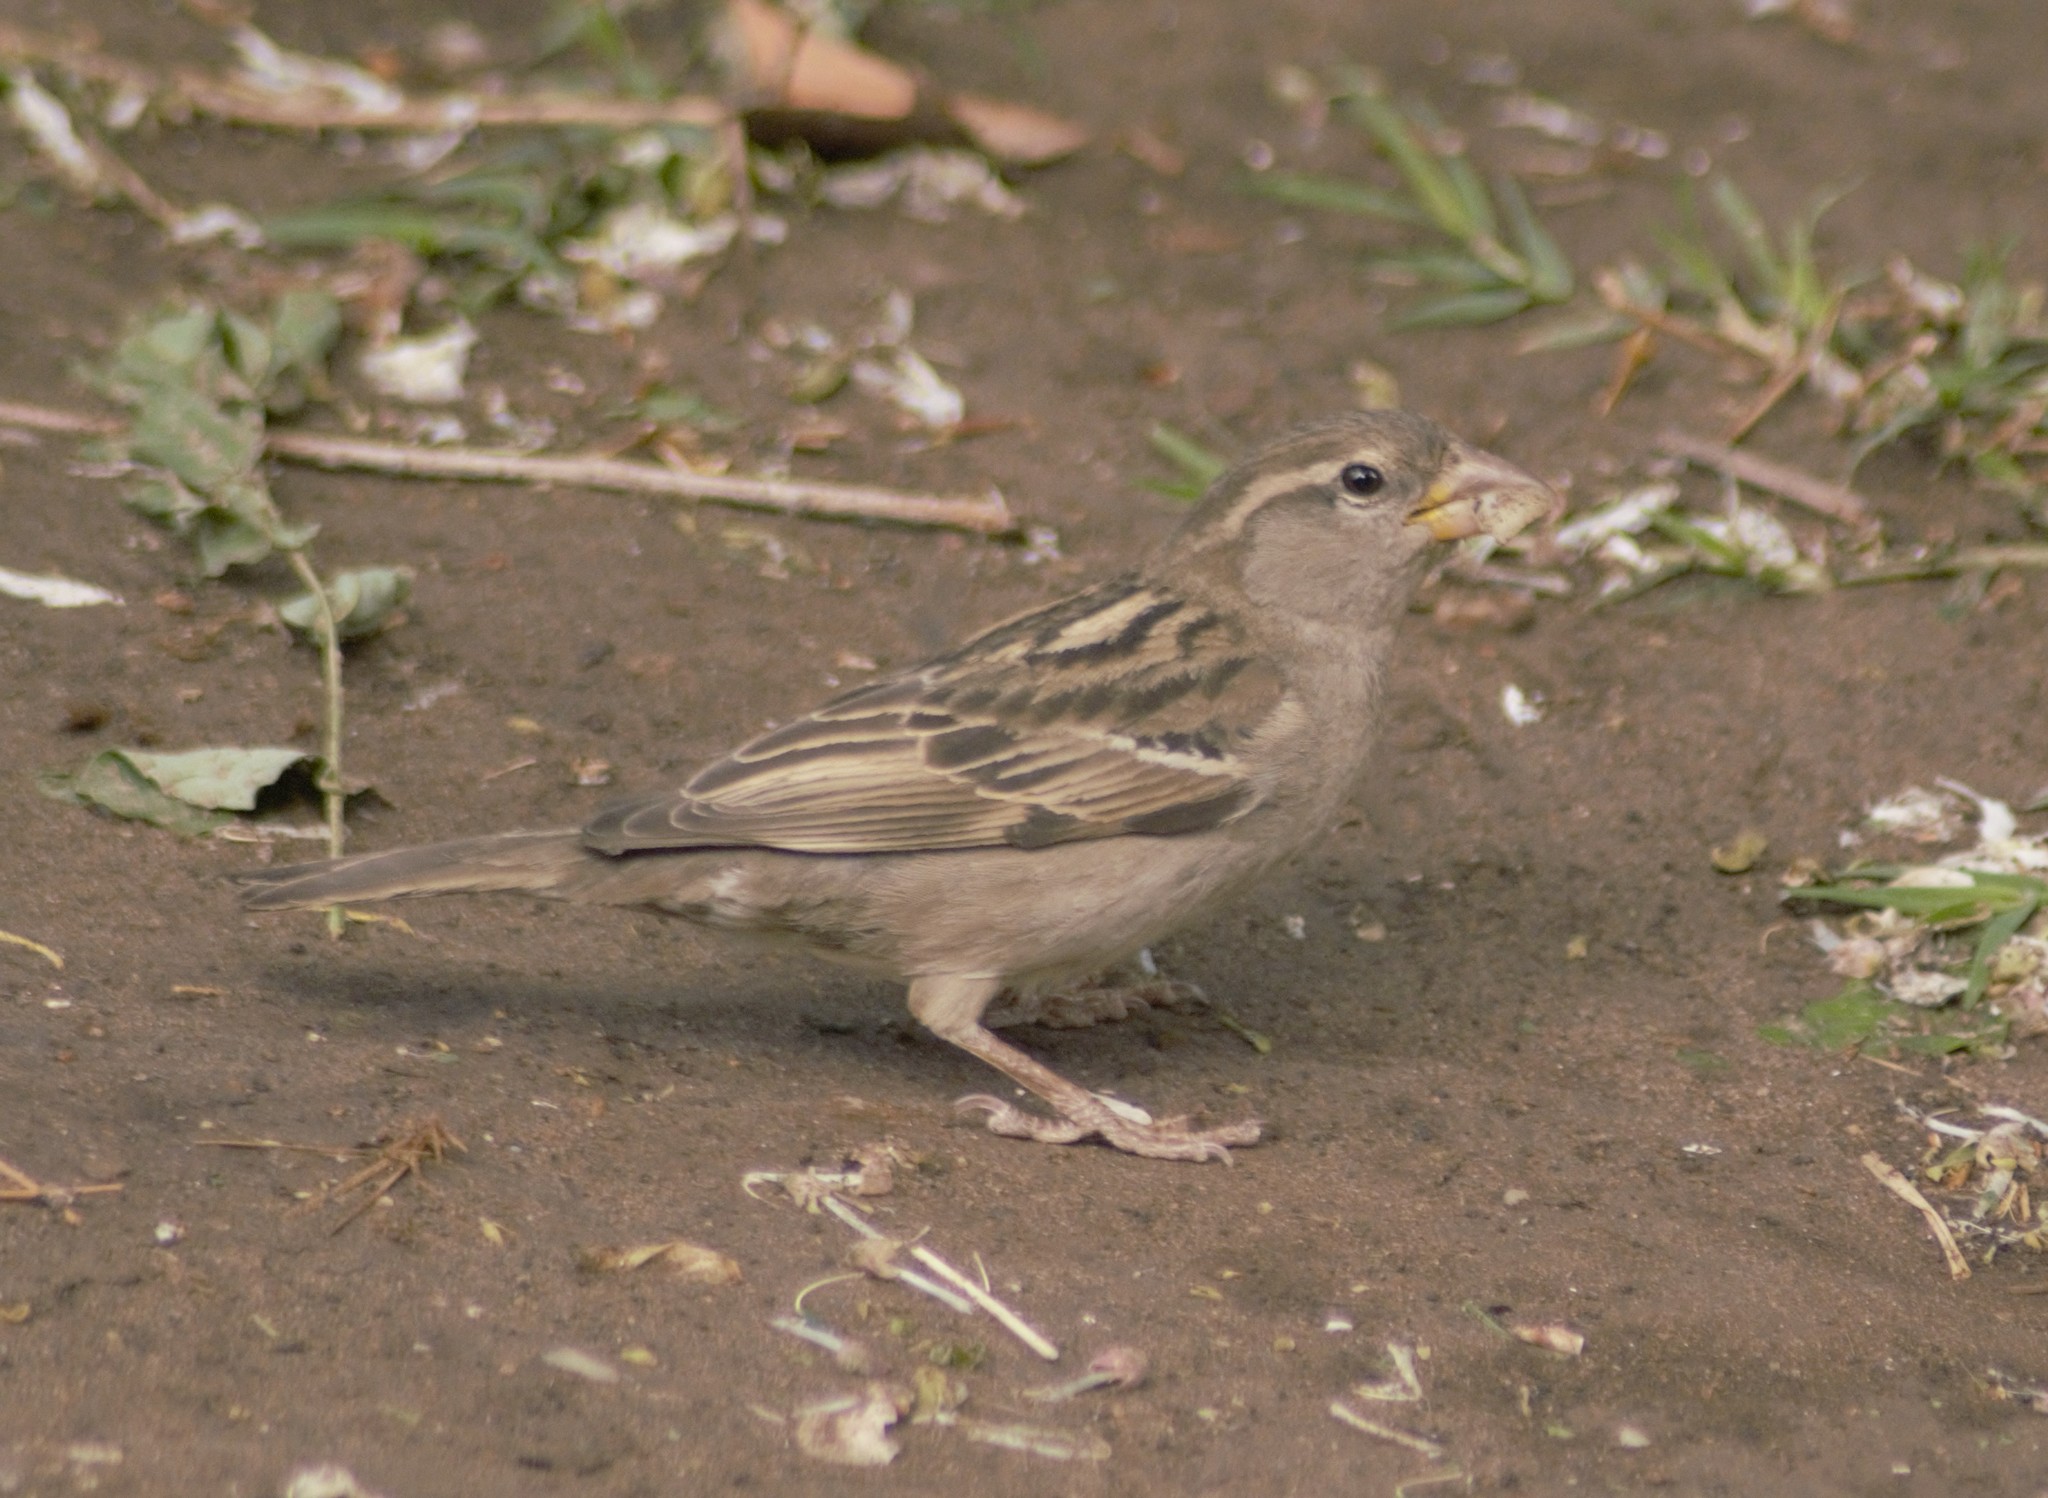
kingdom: Animalia
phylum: Chordata
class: Aves
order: Passeriformes
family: Passeridae
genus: Passer
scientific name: Passer domesticus
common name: House sparrow
